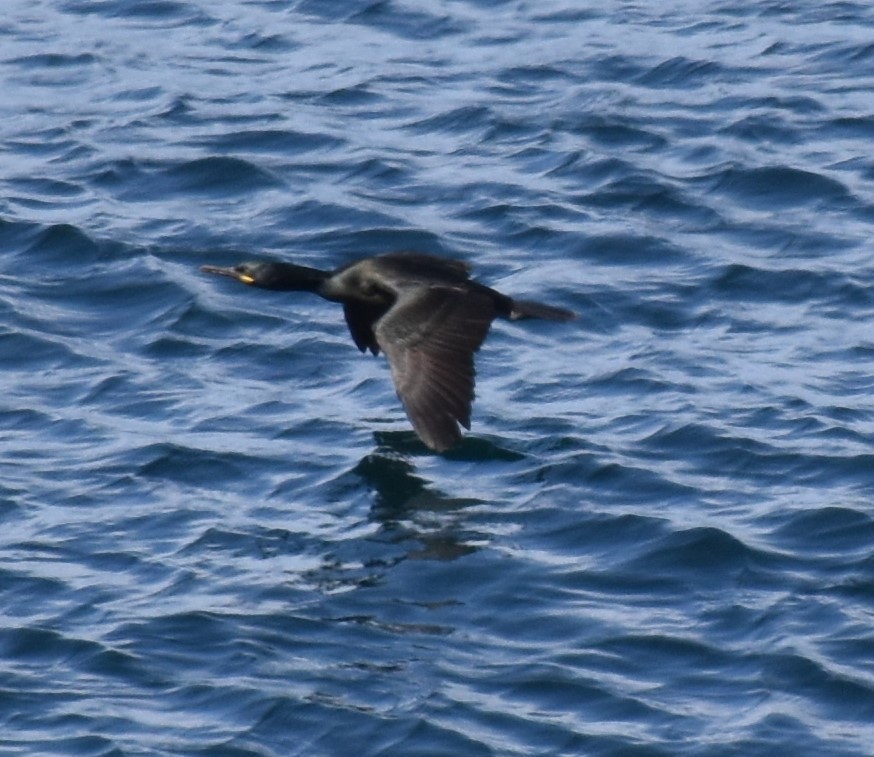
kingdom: Animalia
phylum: Chordata
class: Aves
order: Suliformes
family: Phalacrocoracidae
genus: Phalacrocorax
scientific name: Phalacrocorax aristotelis
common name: European shag
